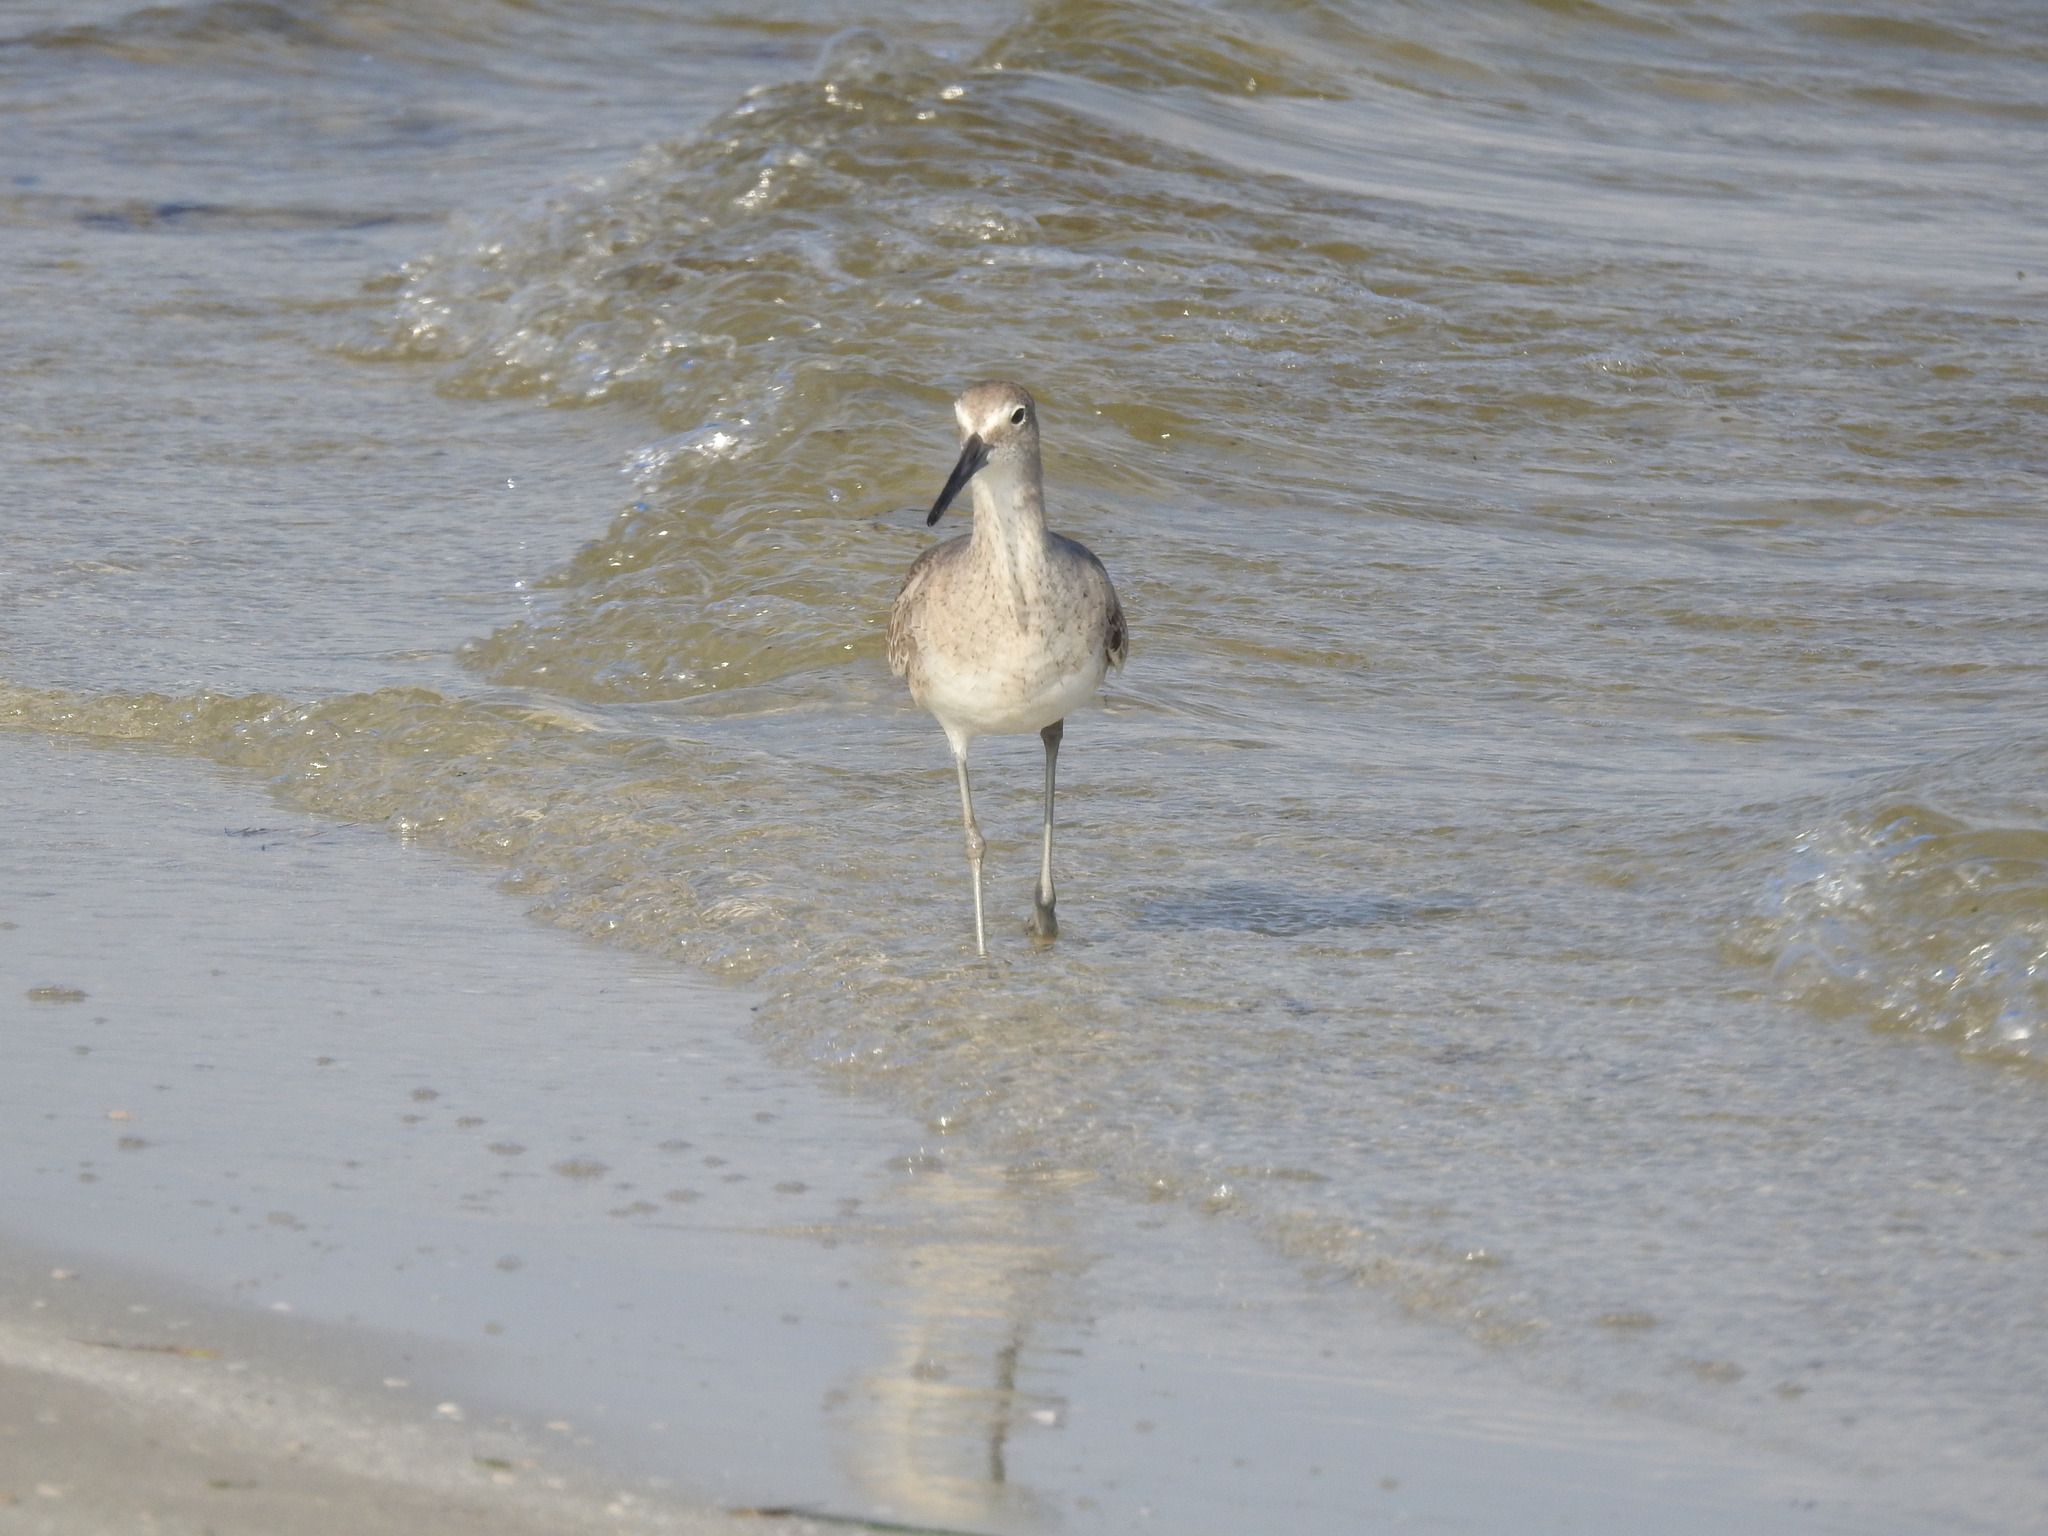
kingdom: Animalia
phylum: Chordata
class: Aves
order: Charadriiformes
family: Scolopacidae
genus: Tringa
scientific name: Tringa semipalmata
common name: Willet
